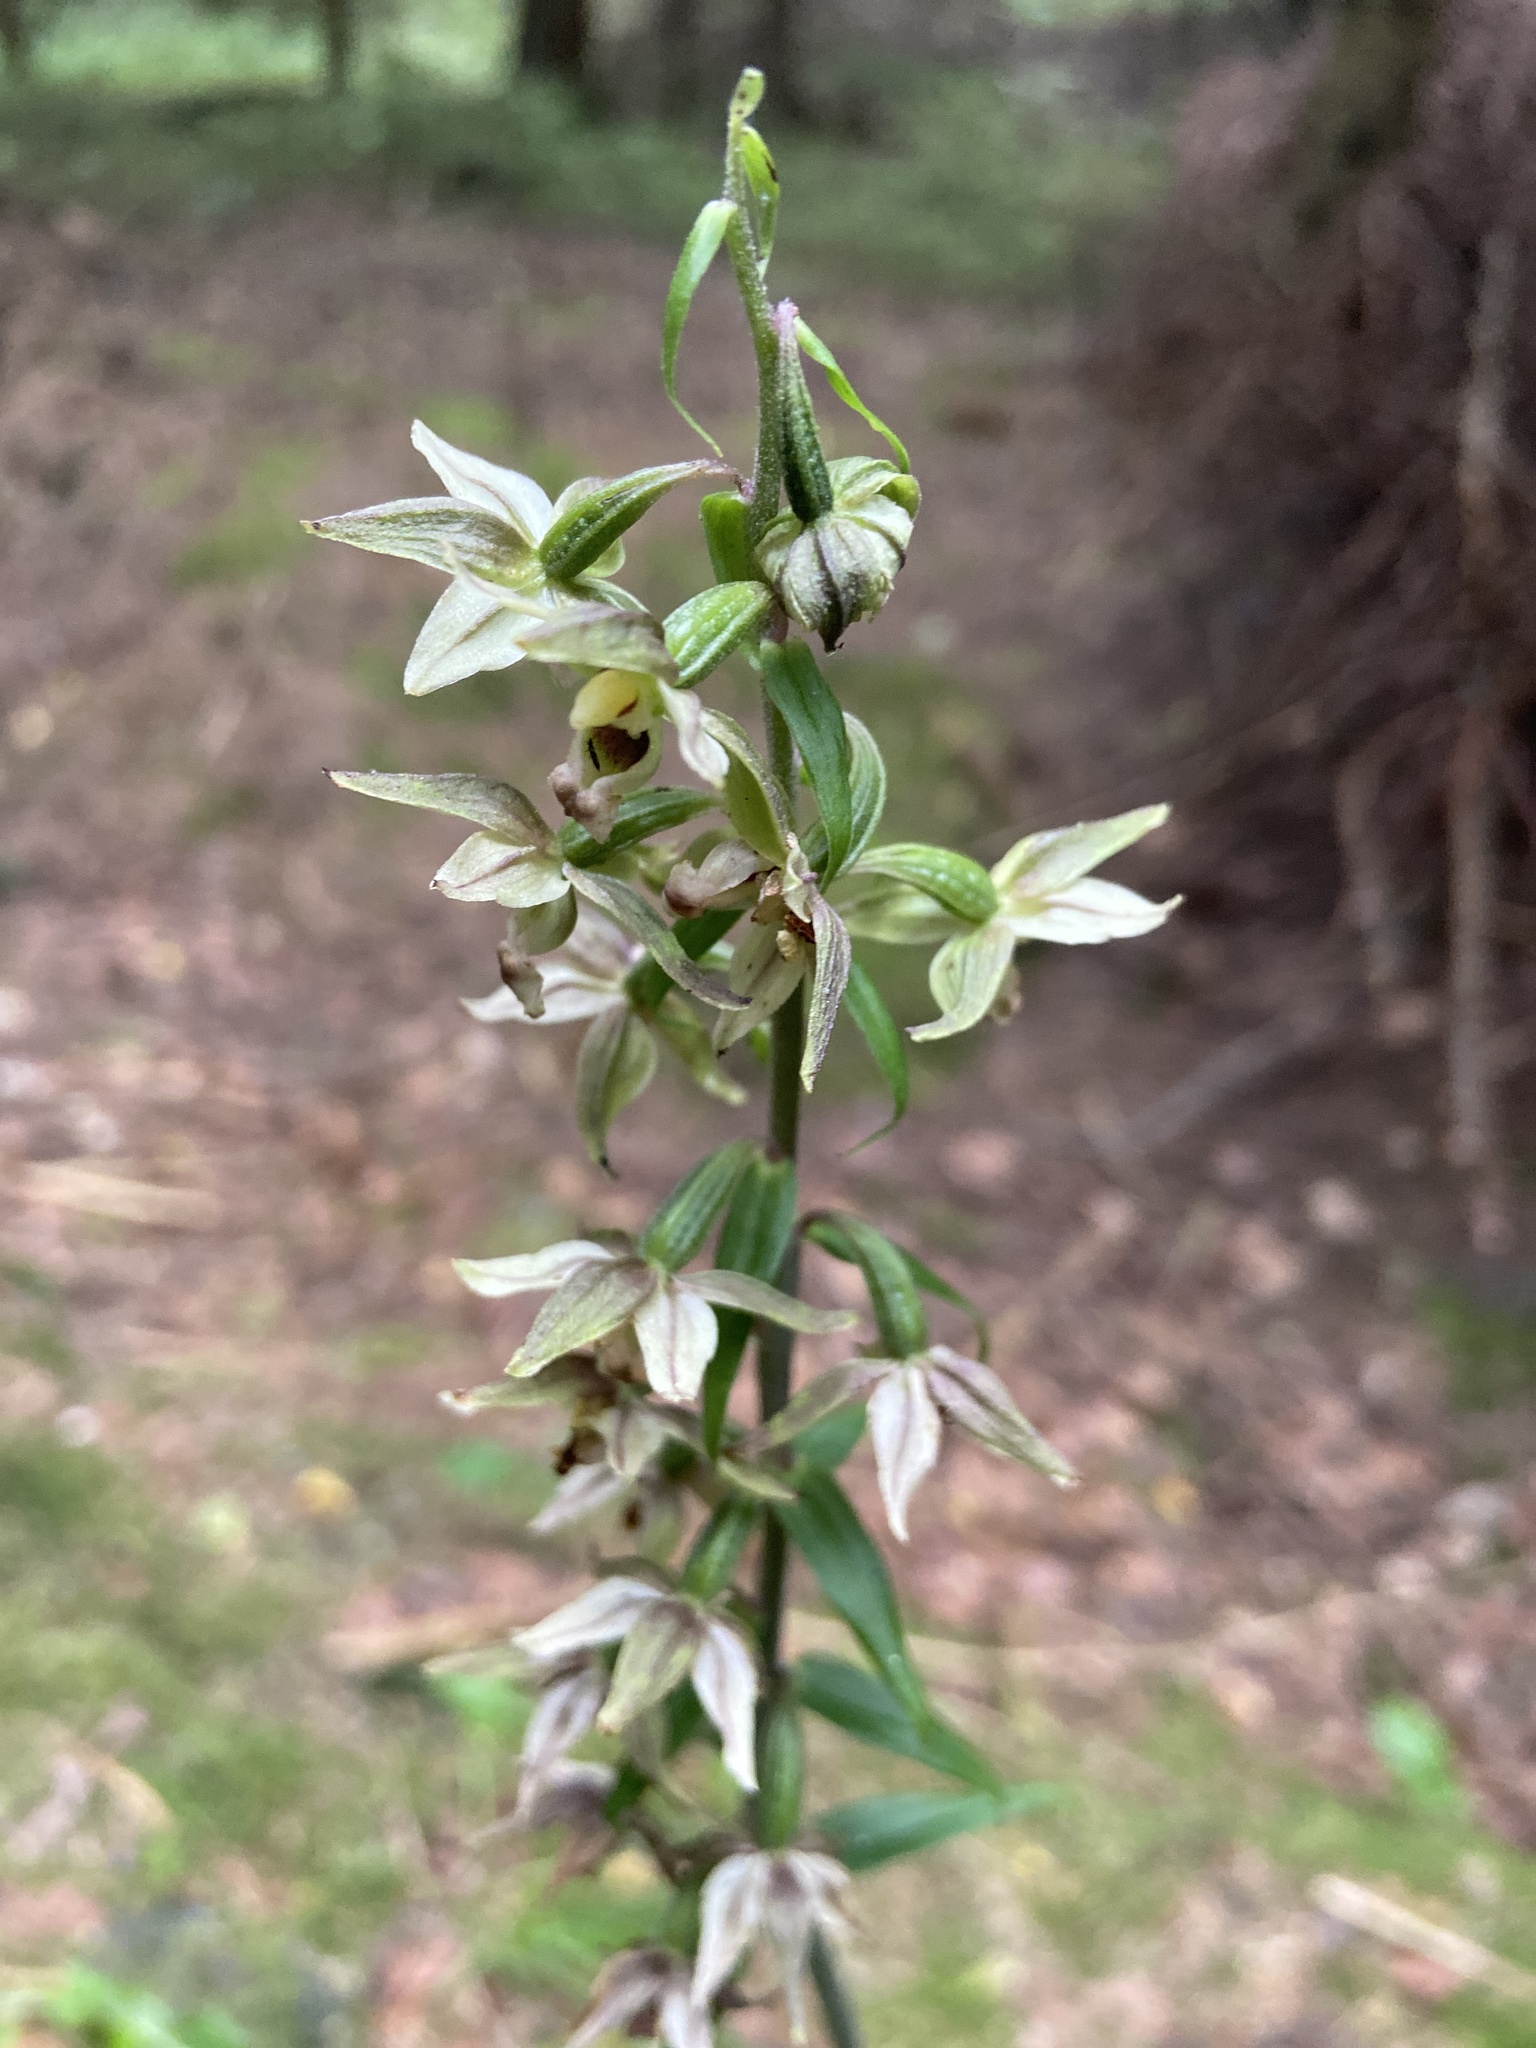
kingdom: Plantae
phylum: Tracheophyta
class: Liliopsida
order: Asparagales
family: Orchidaceae
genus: Epipactis
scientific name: Epipactis helleborine
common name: Broad-leaved helleborine
